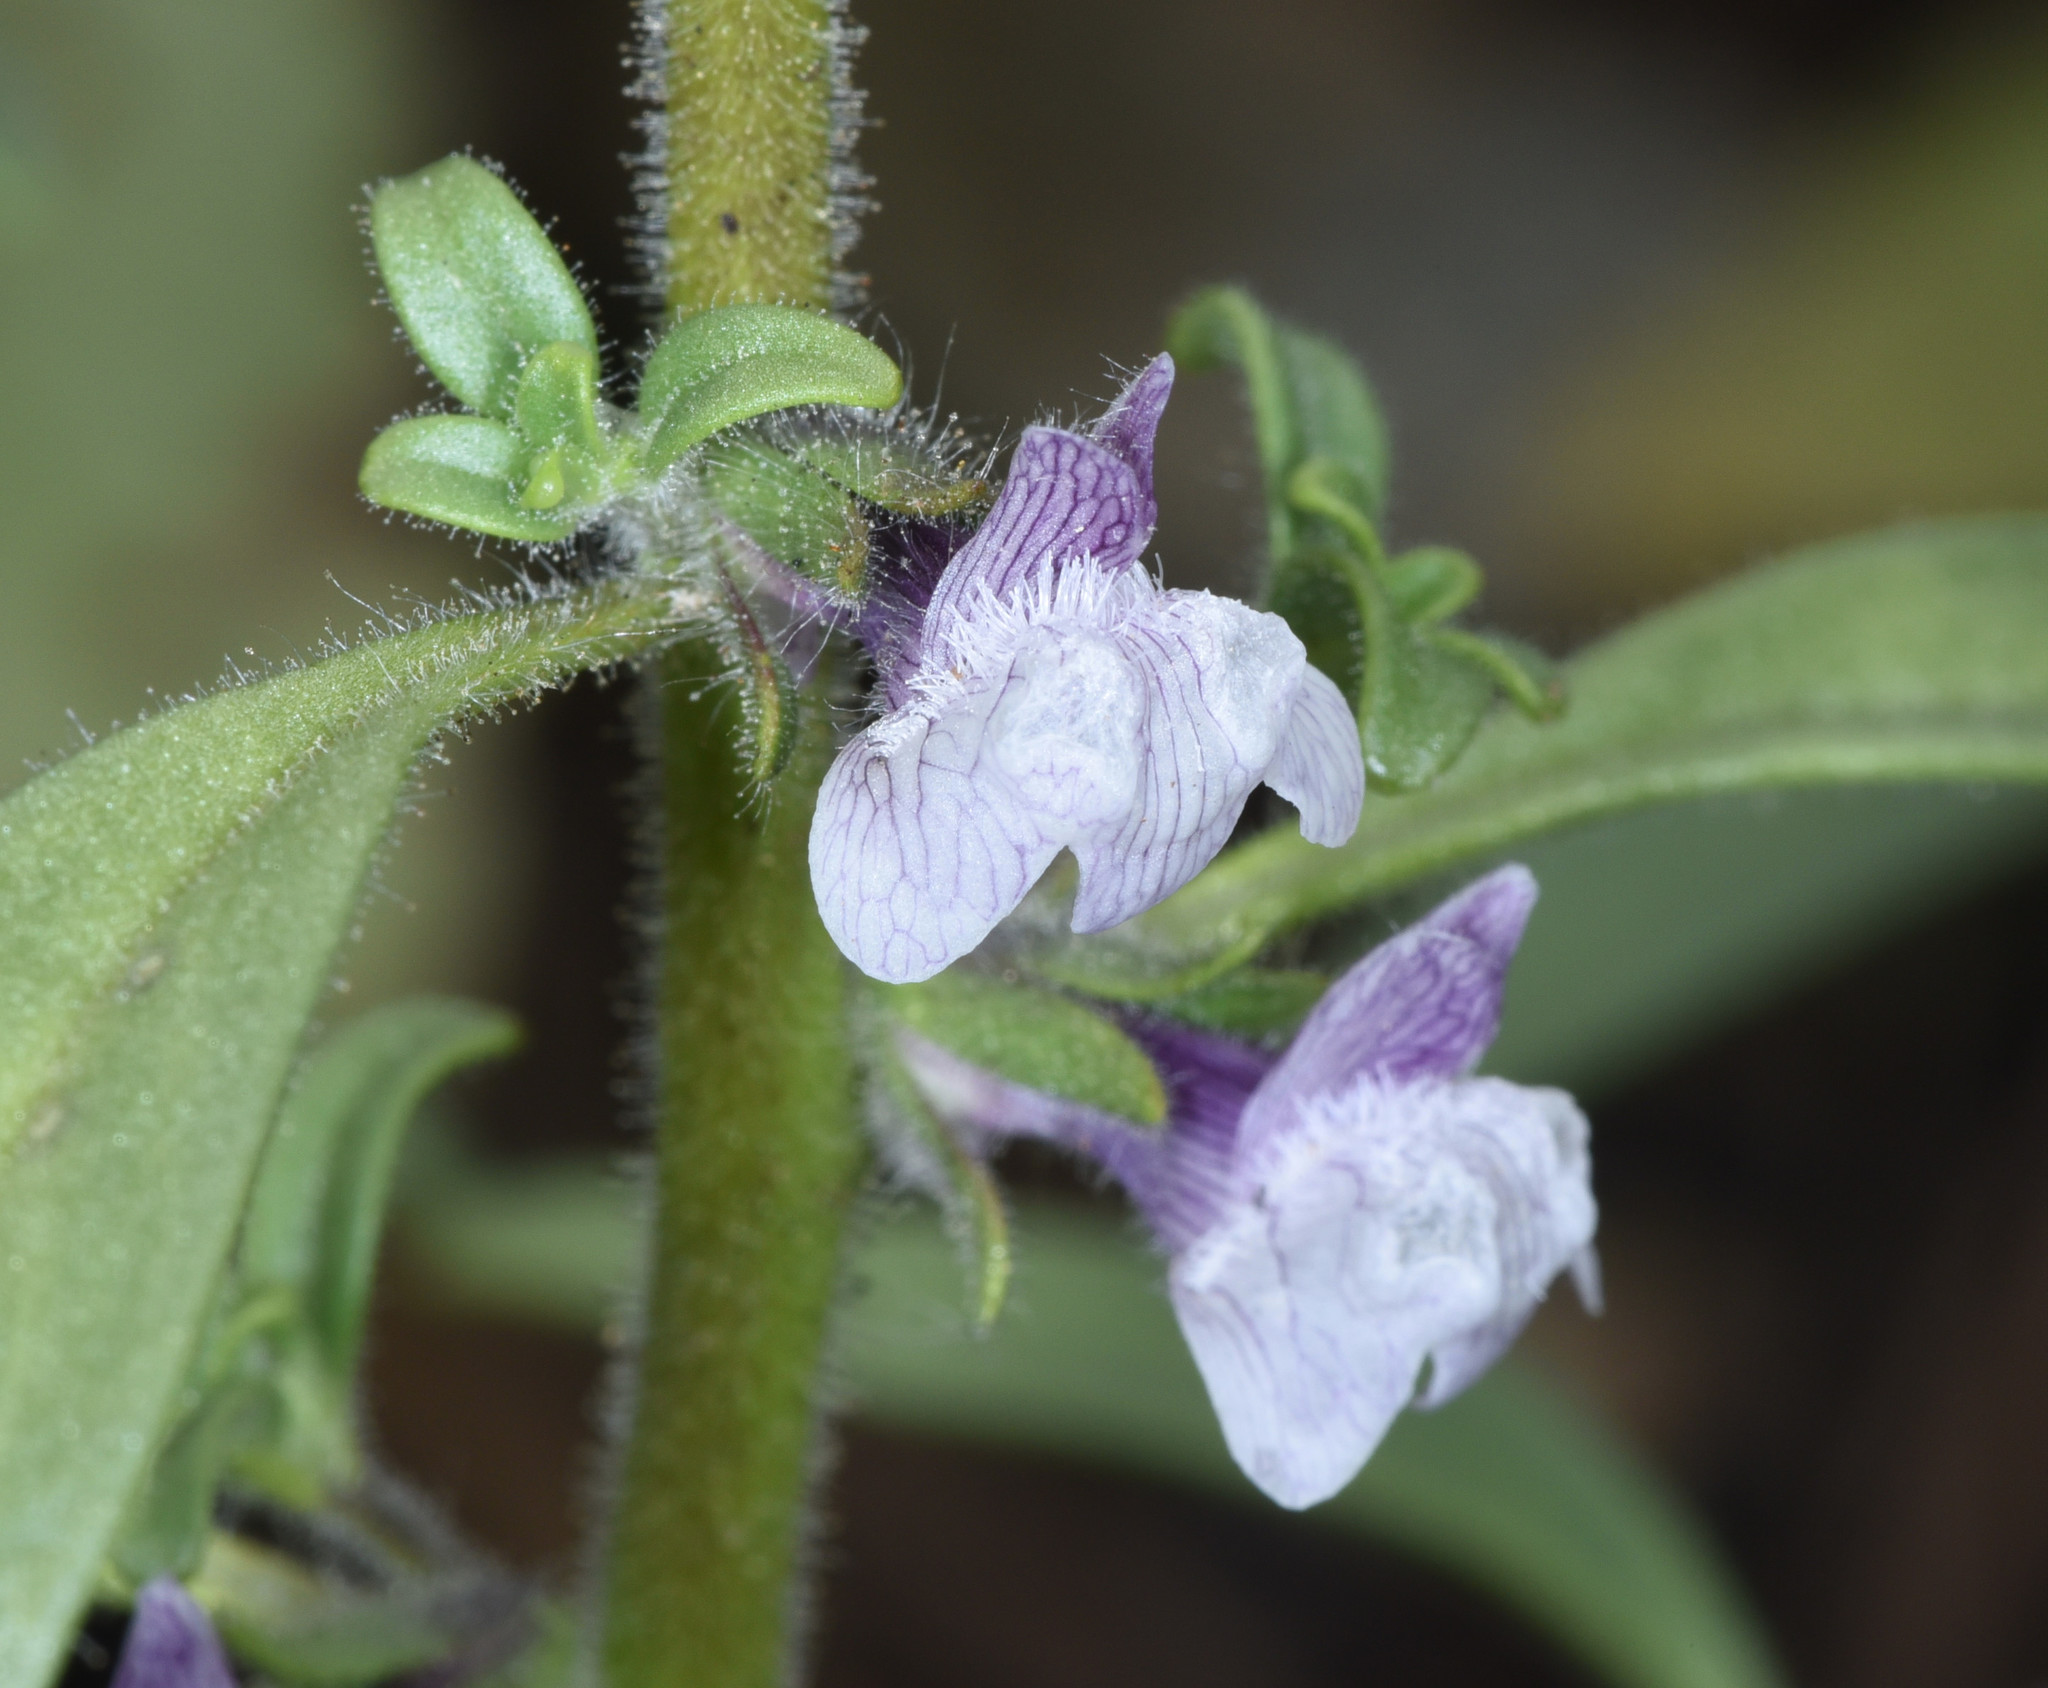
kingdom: Plantae
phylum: Tracheophyta
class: Magnoliopsida
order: Lamiales
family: Plantaginaceae
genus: Sairocarpus
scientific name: Sairocarpus cornutus
